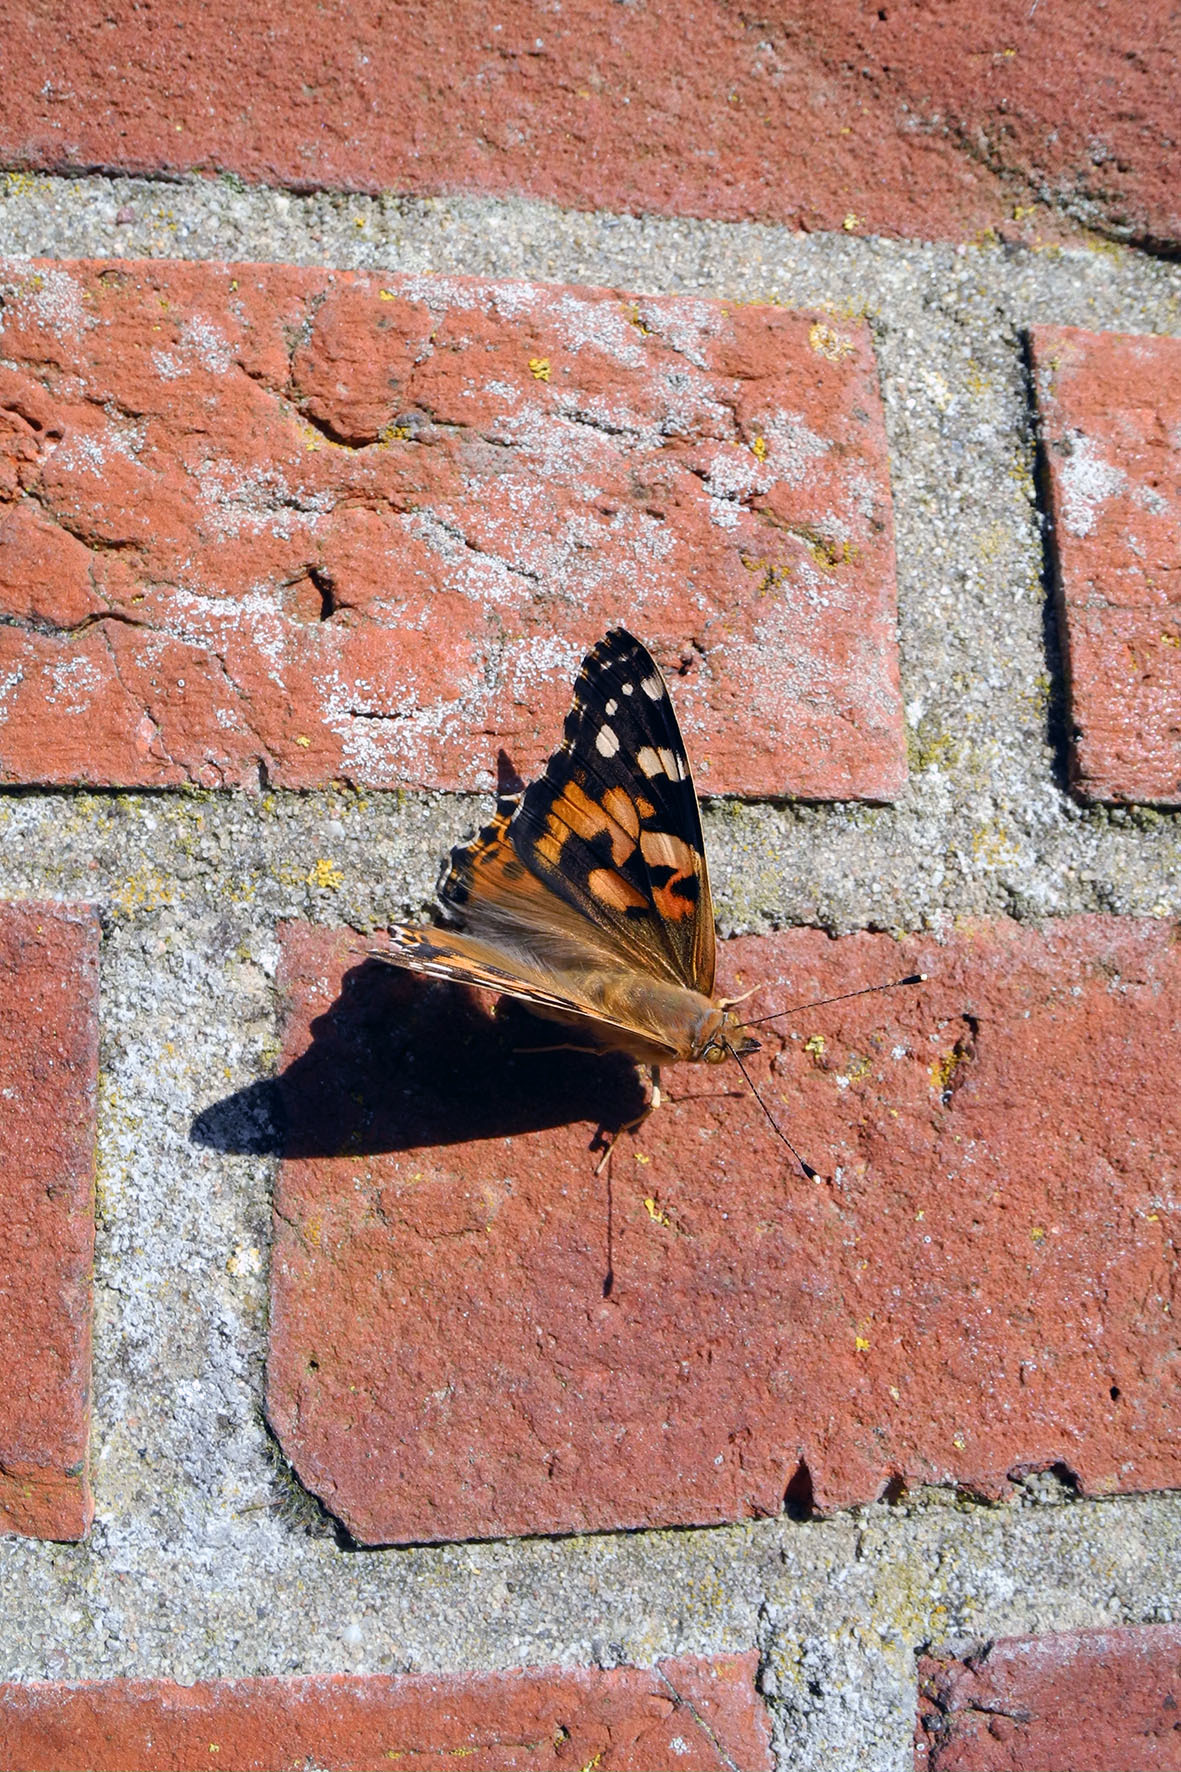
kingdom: Animalia
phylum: Arthropoda
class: Insecta
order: Lepidoptera
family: Nymphalidae
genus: Vanessa
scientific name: Vanessa cardui
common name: Painted lady
